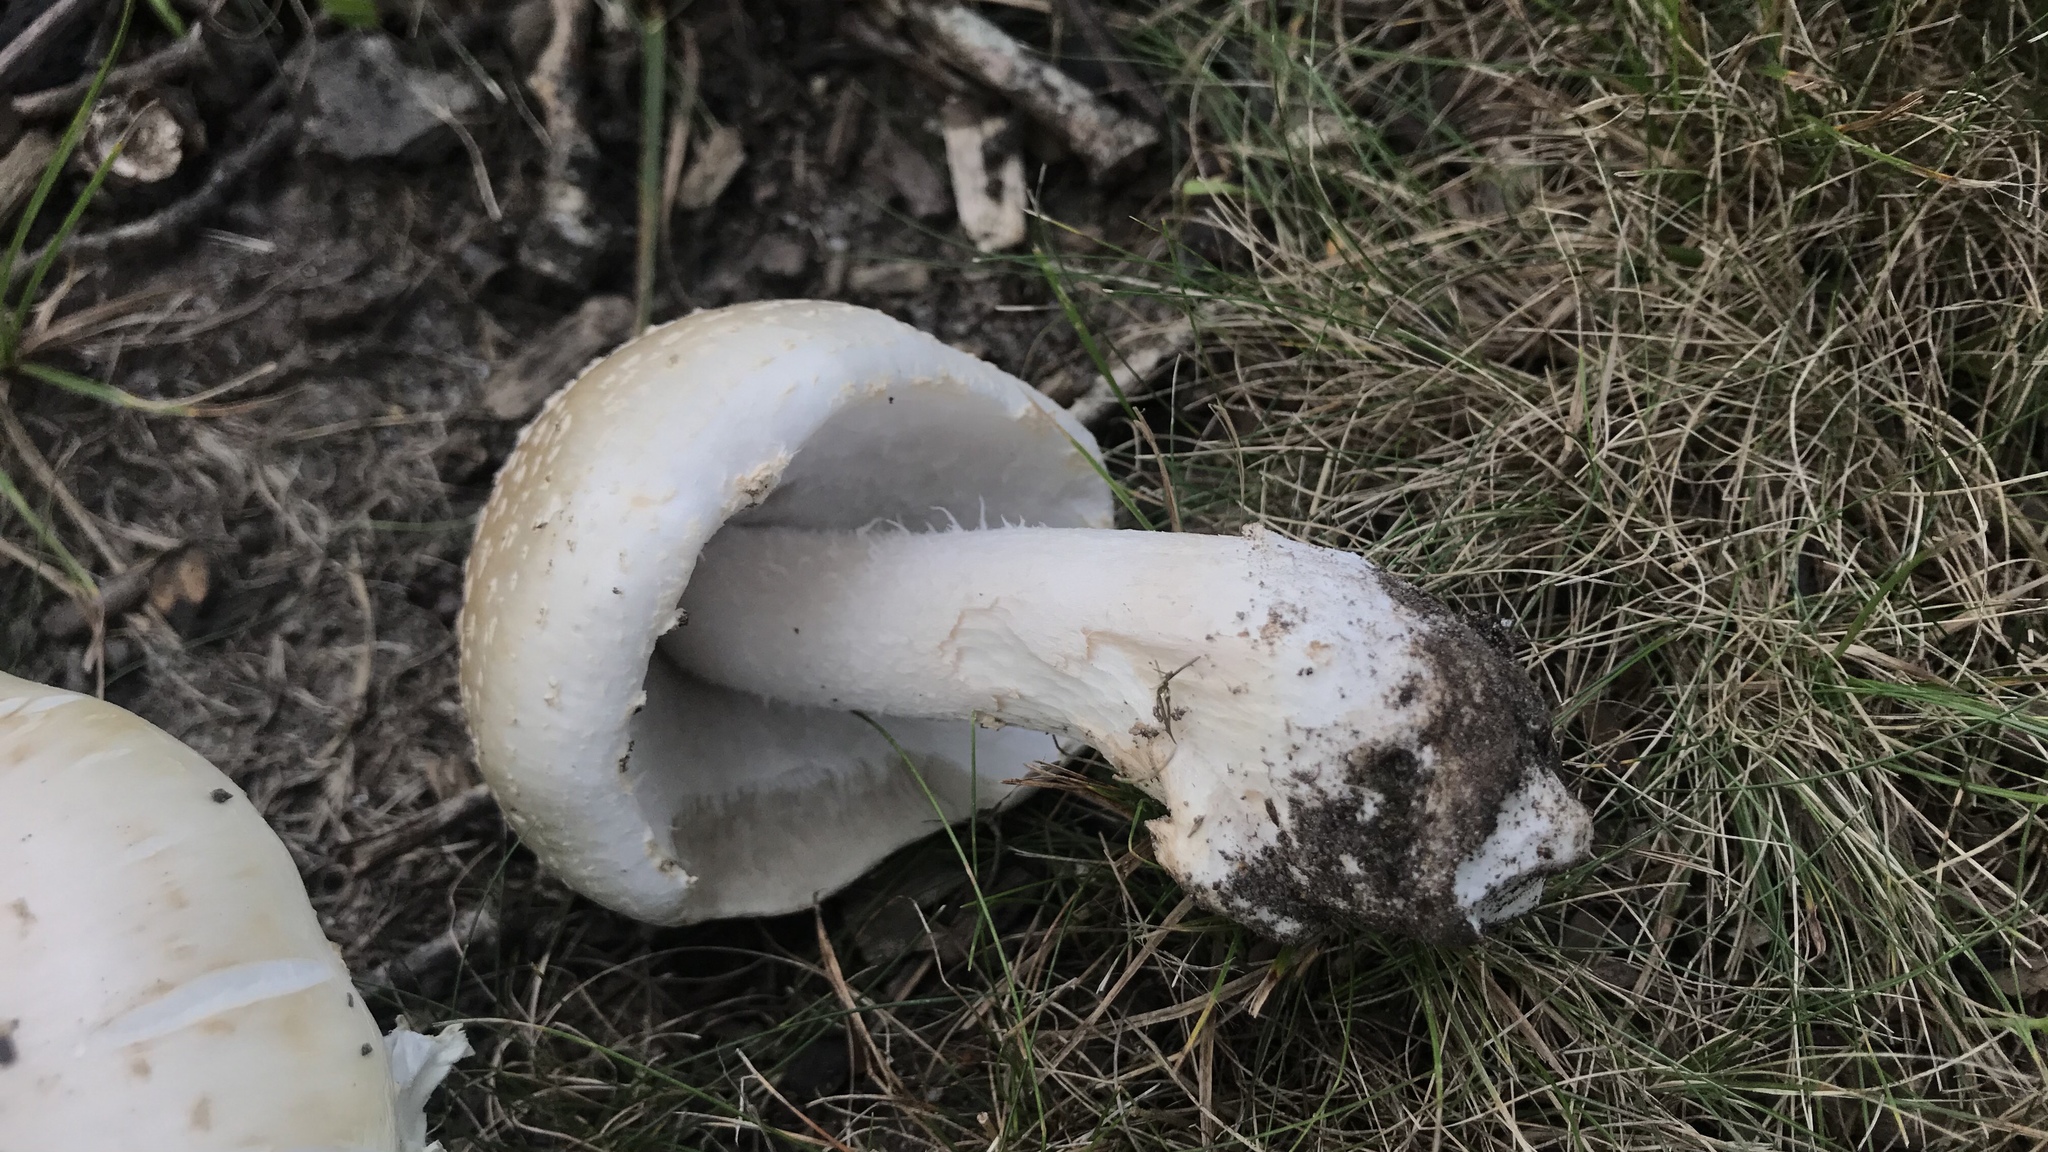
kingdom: Fungi
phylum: Basidiomycota
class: Agaricomycetes
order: Agaricales
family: Amanitaceae
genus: Amanita
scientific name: Amanita canescens
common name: Golden threads lepidella
